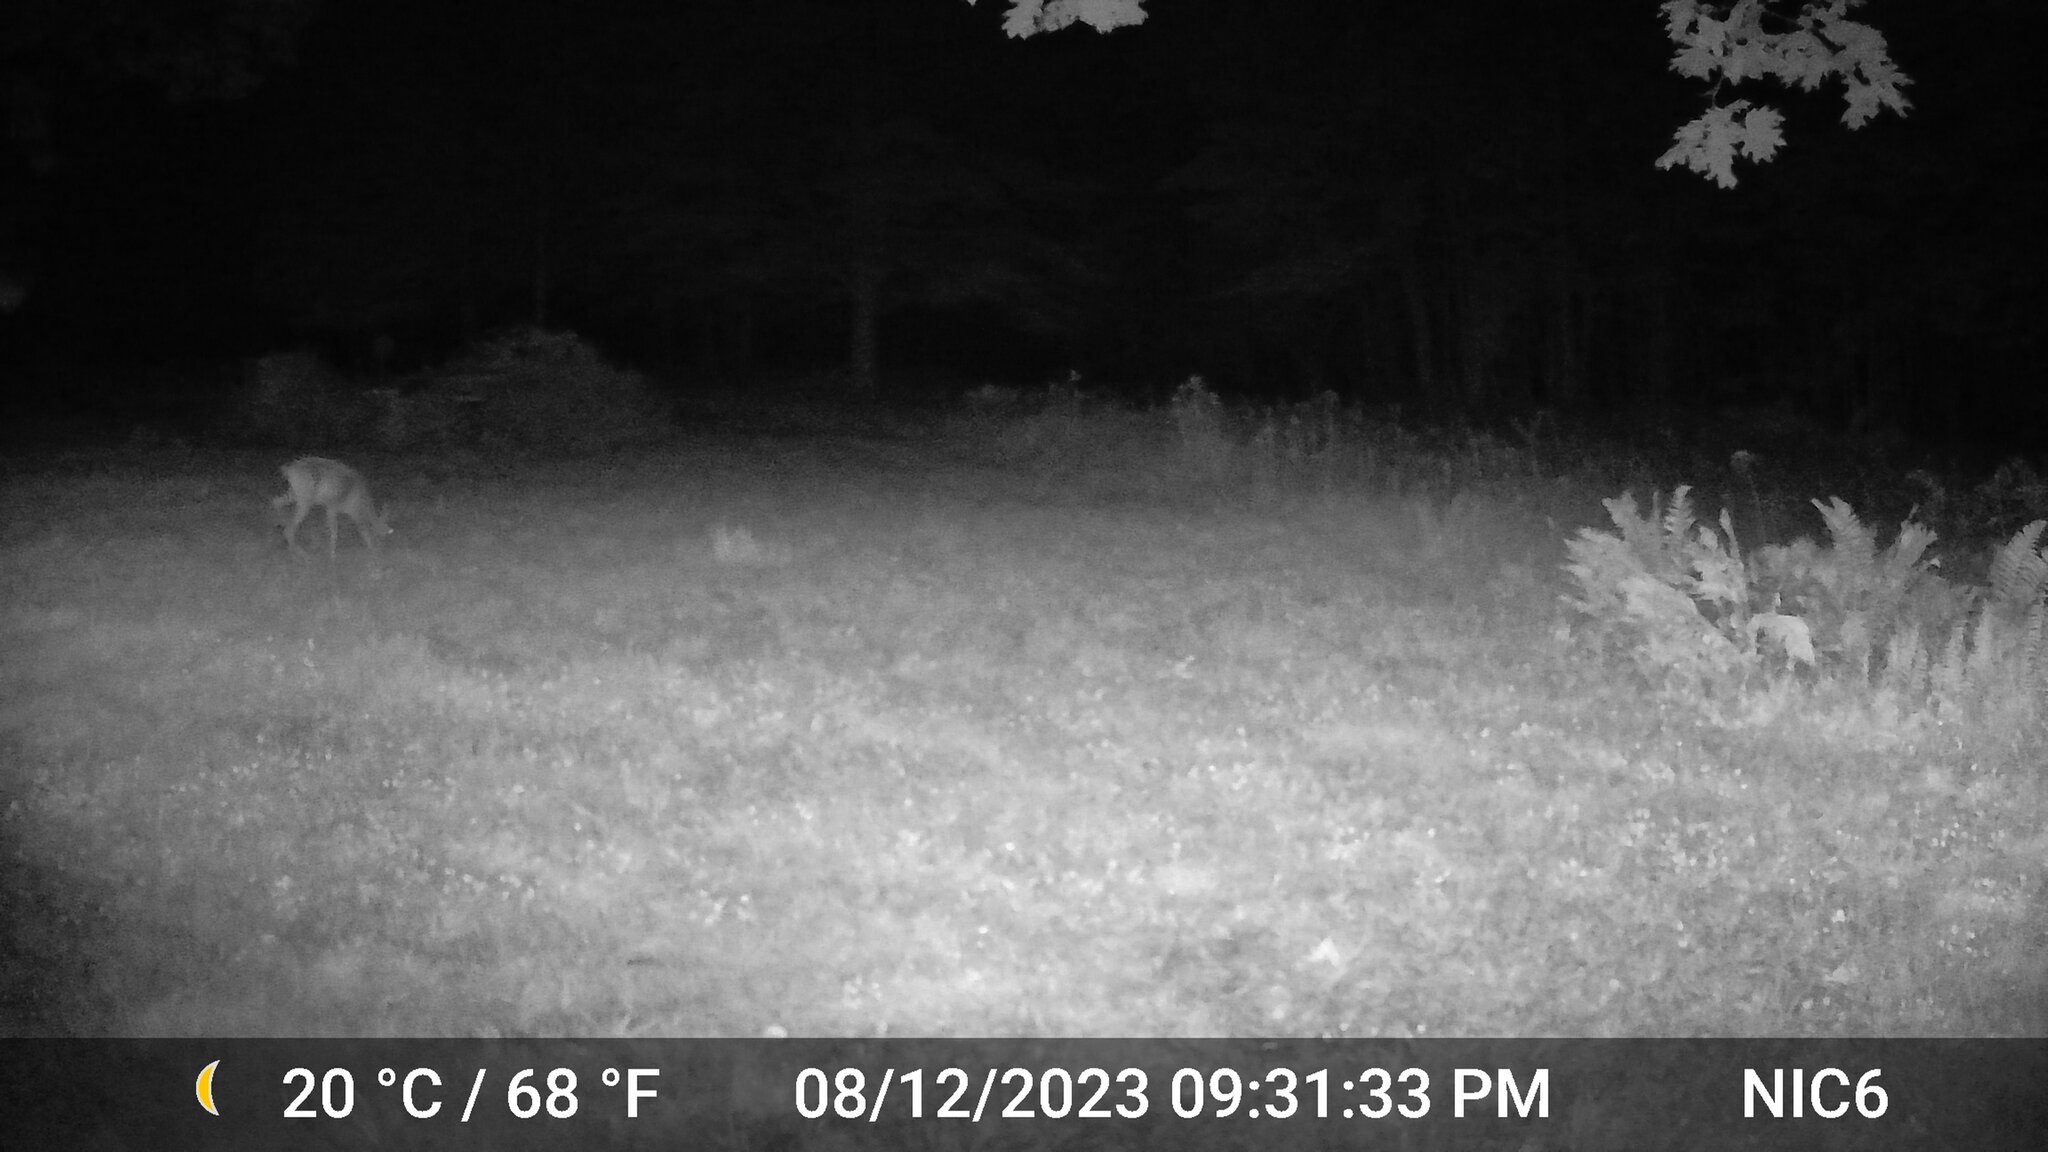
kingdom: Animalia
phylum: Chordata
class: Mammalia
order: Artiodactyla
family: Cervidae
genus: Odocoileus
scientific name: Odocoileus virginianus
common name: White-tailed deer
